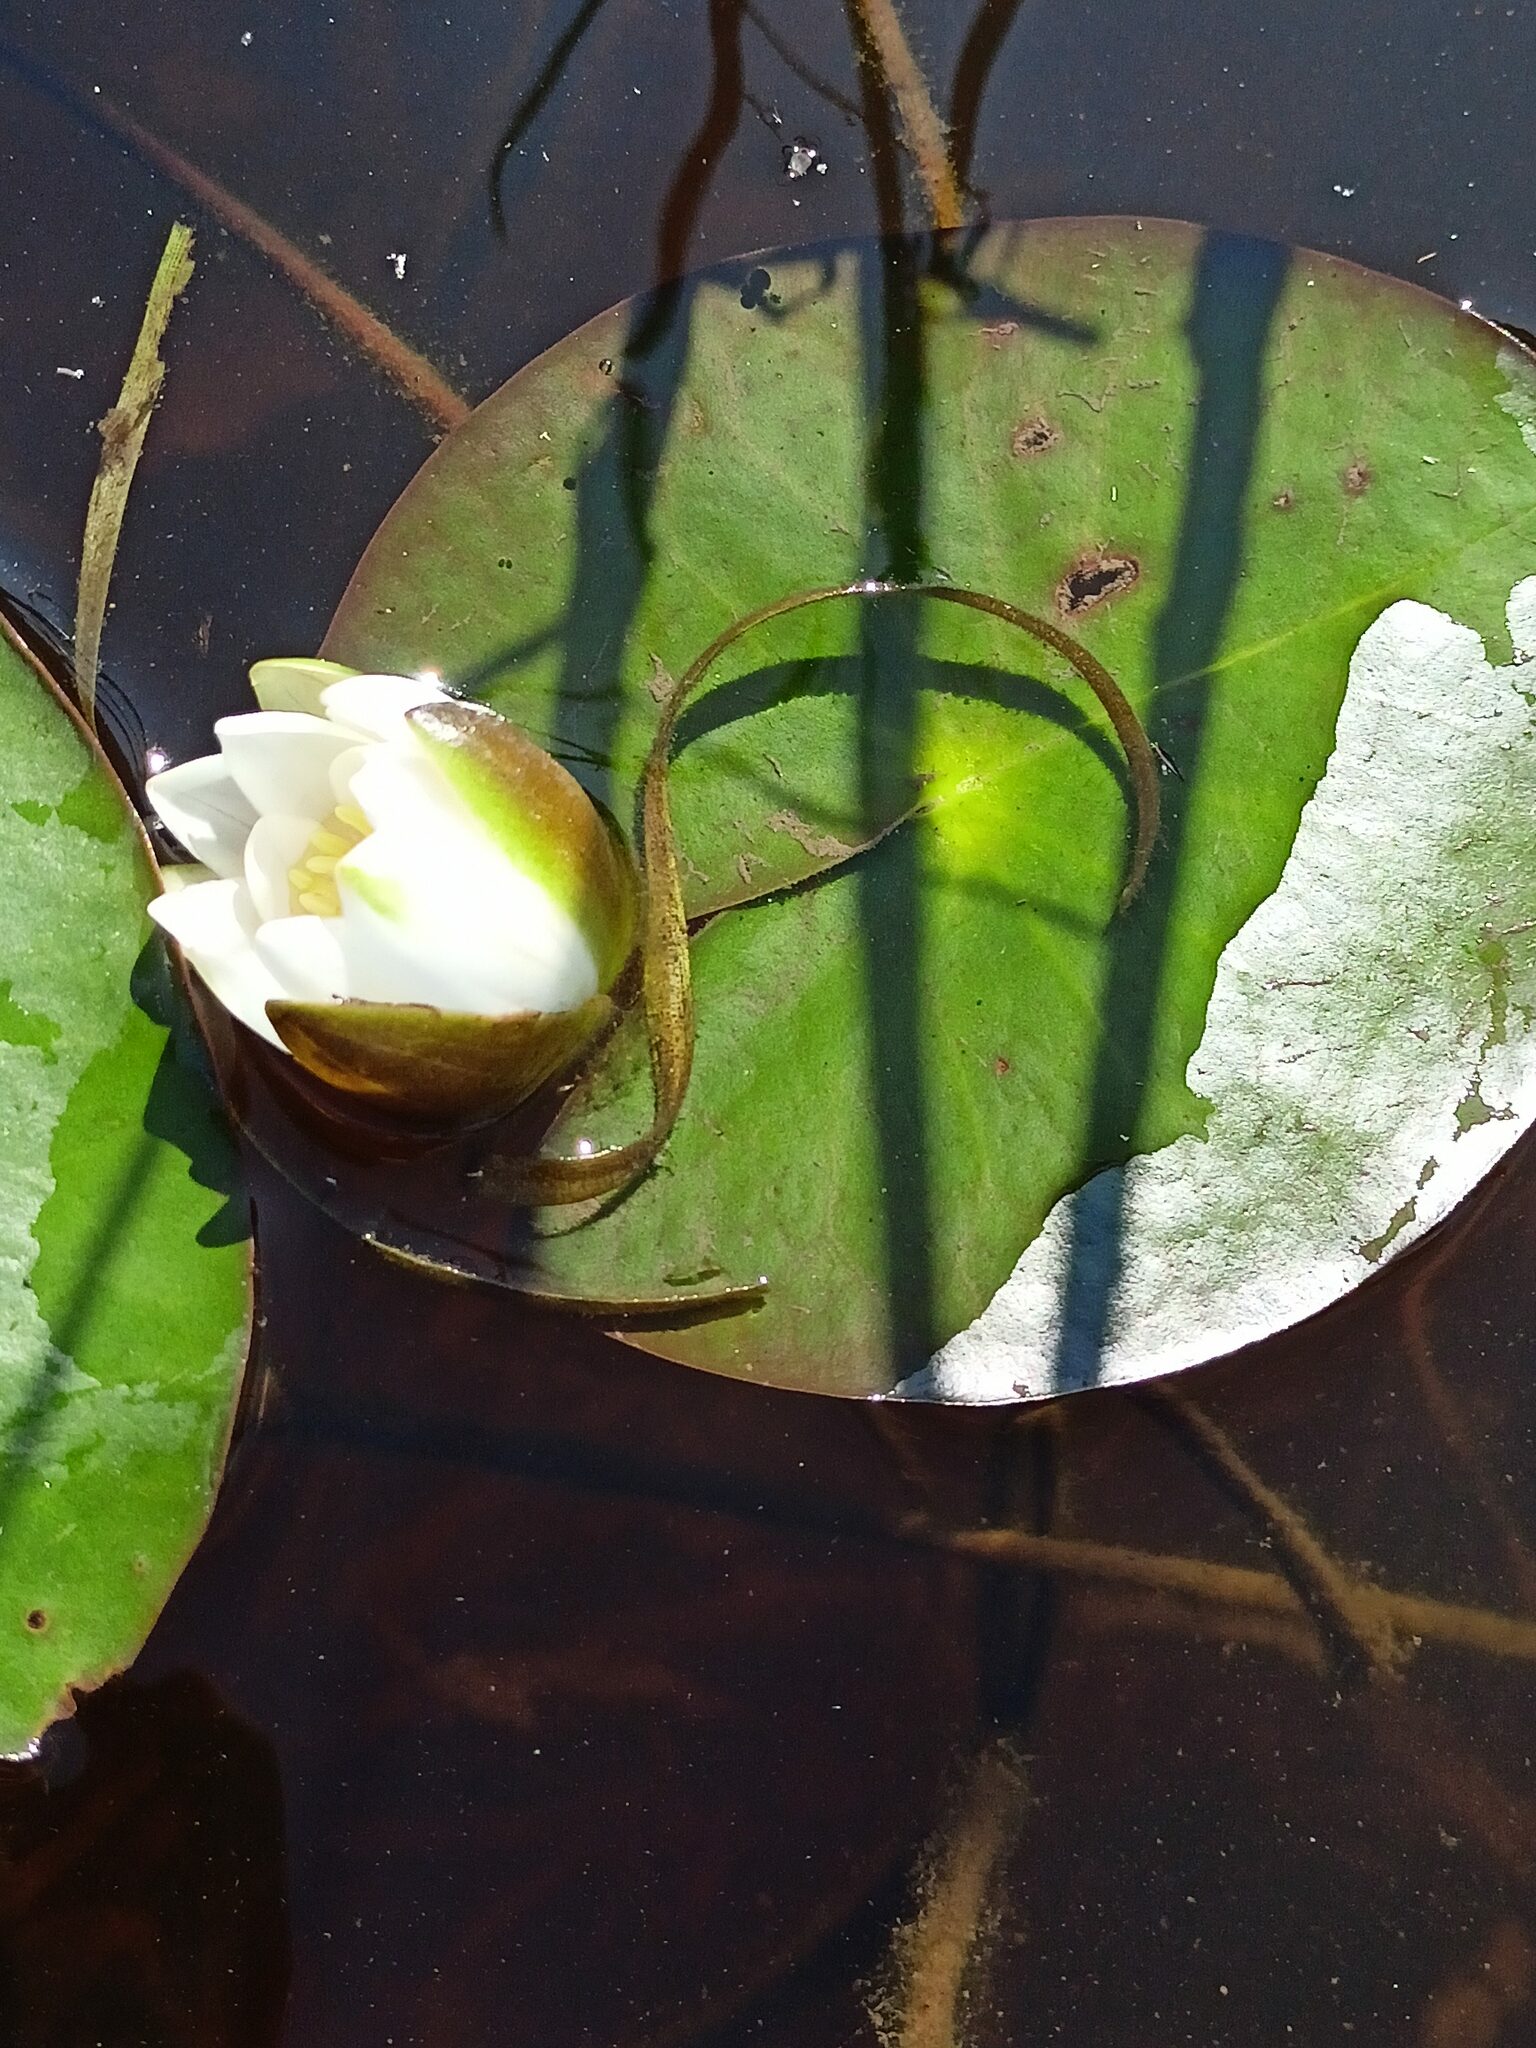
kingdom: Plantae
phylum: Tracheophyta
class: Magnoliopsida
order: Nymphaeales
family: Nymphaeaceae
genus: Nymphaea
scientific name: Nymphaea candida
